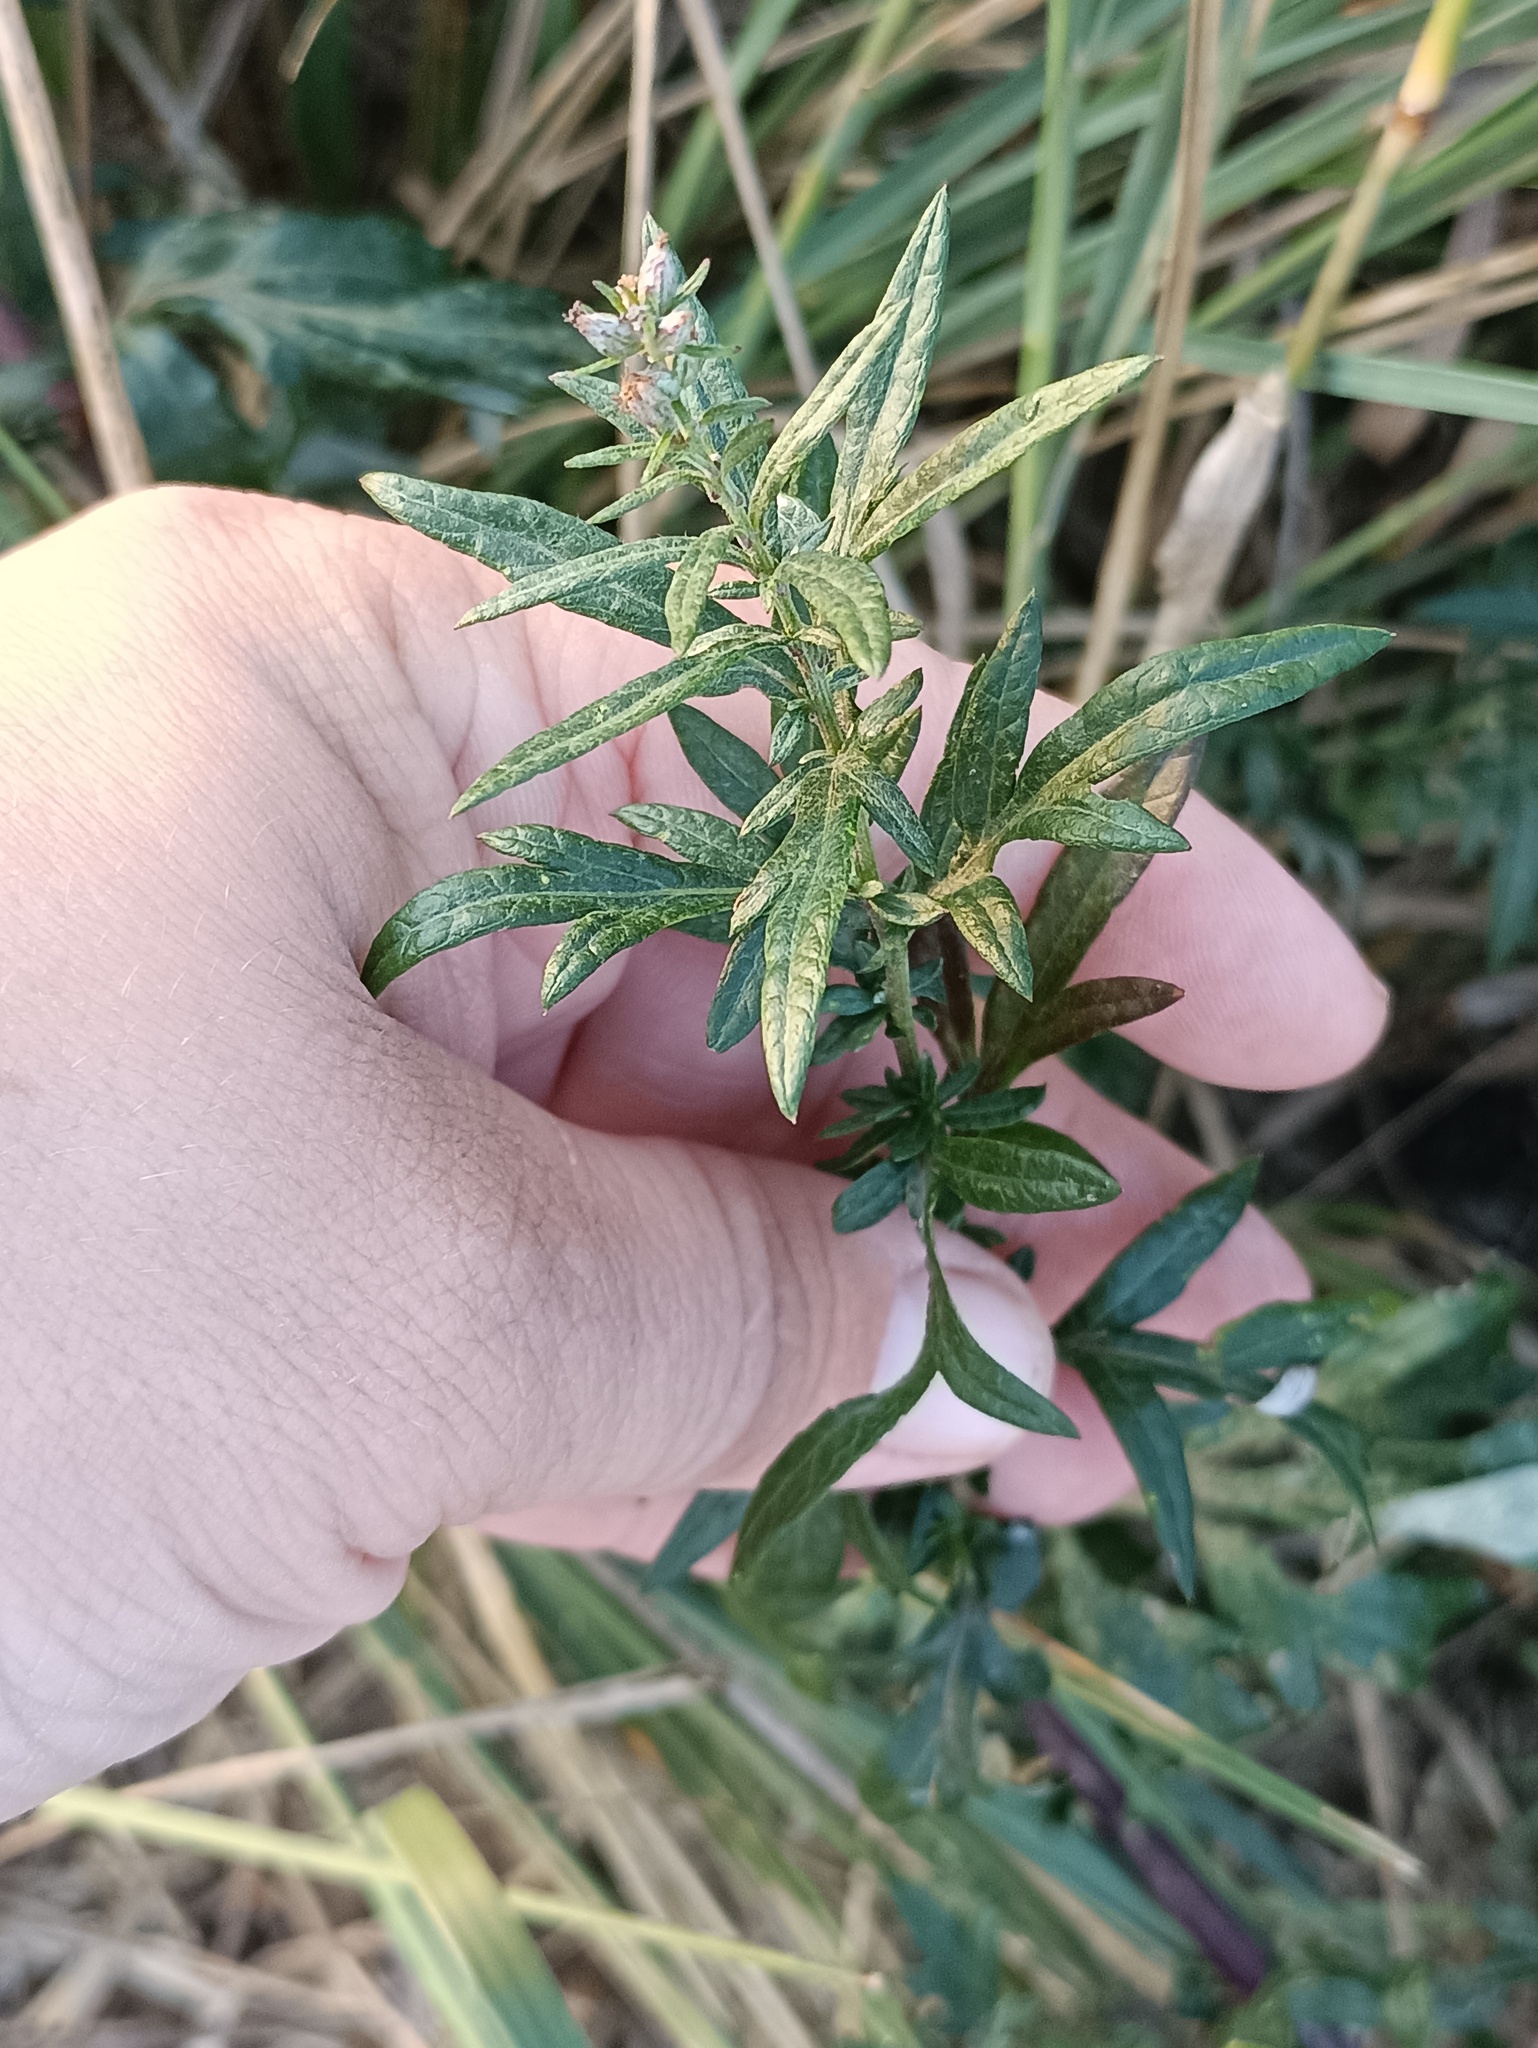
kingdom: Plantae
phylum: Tracheophyta
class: Magnoliopsida
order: Asterales
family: Asteraceae
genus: Artemisia
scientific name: Artemisia vulgaris
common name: Mugwort
